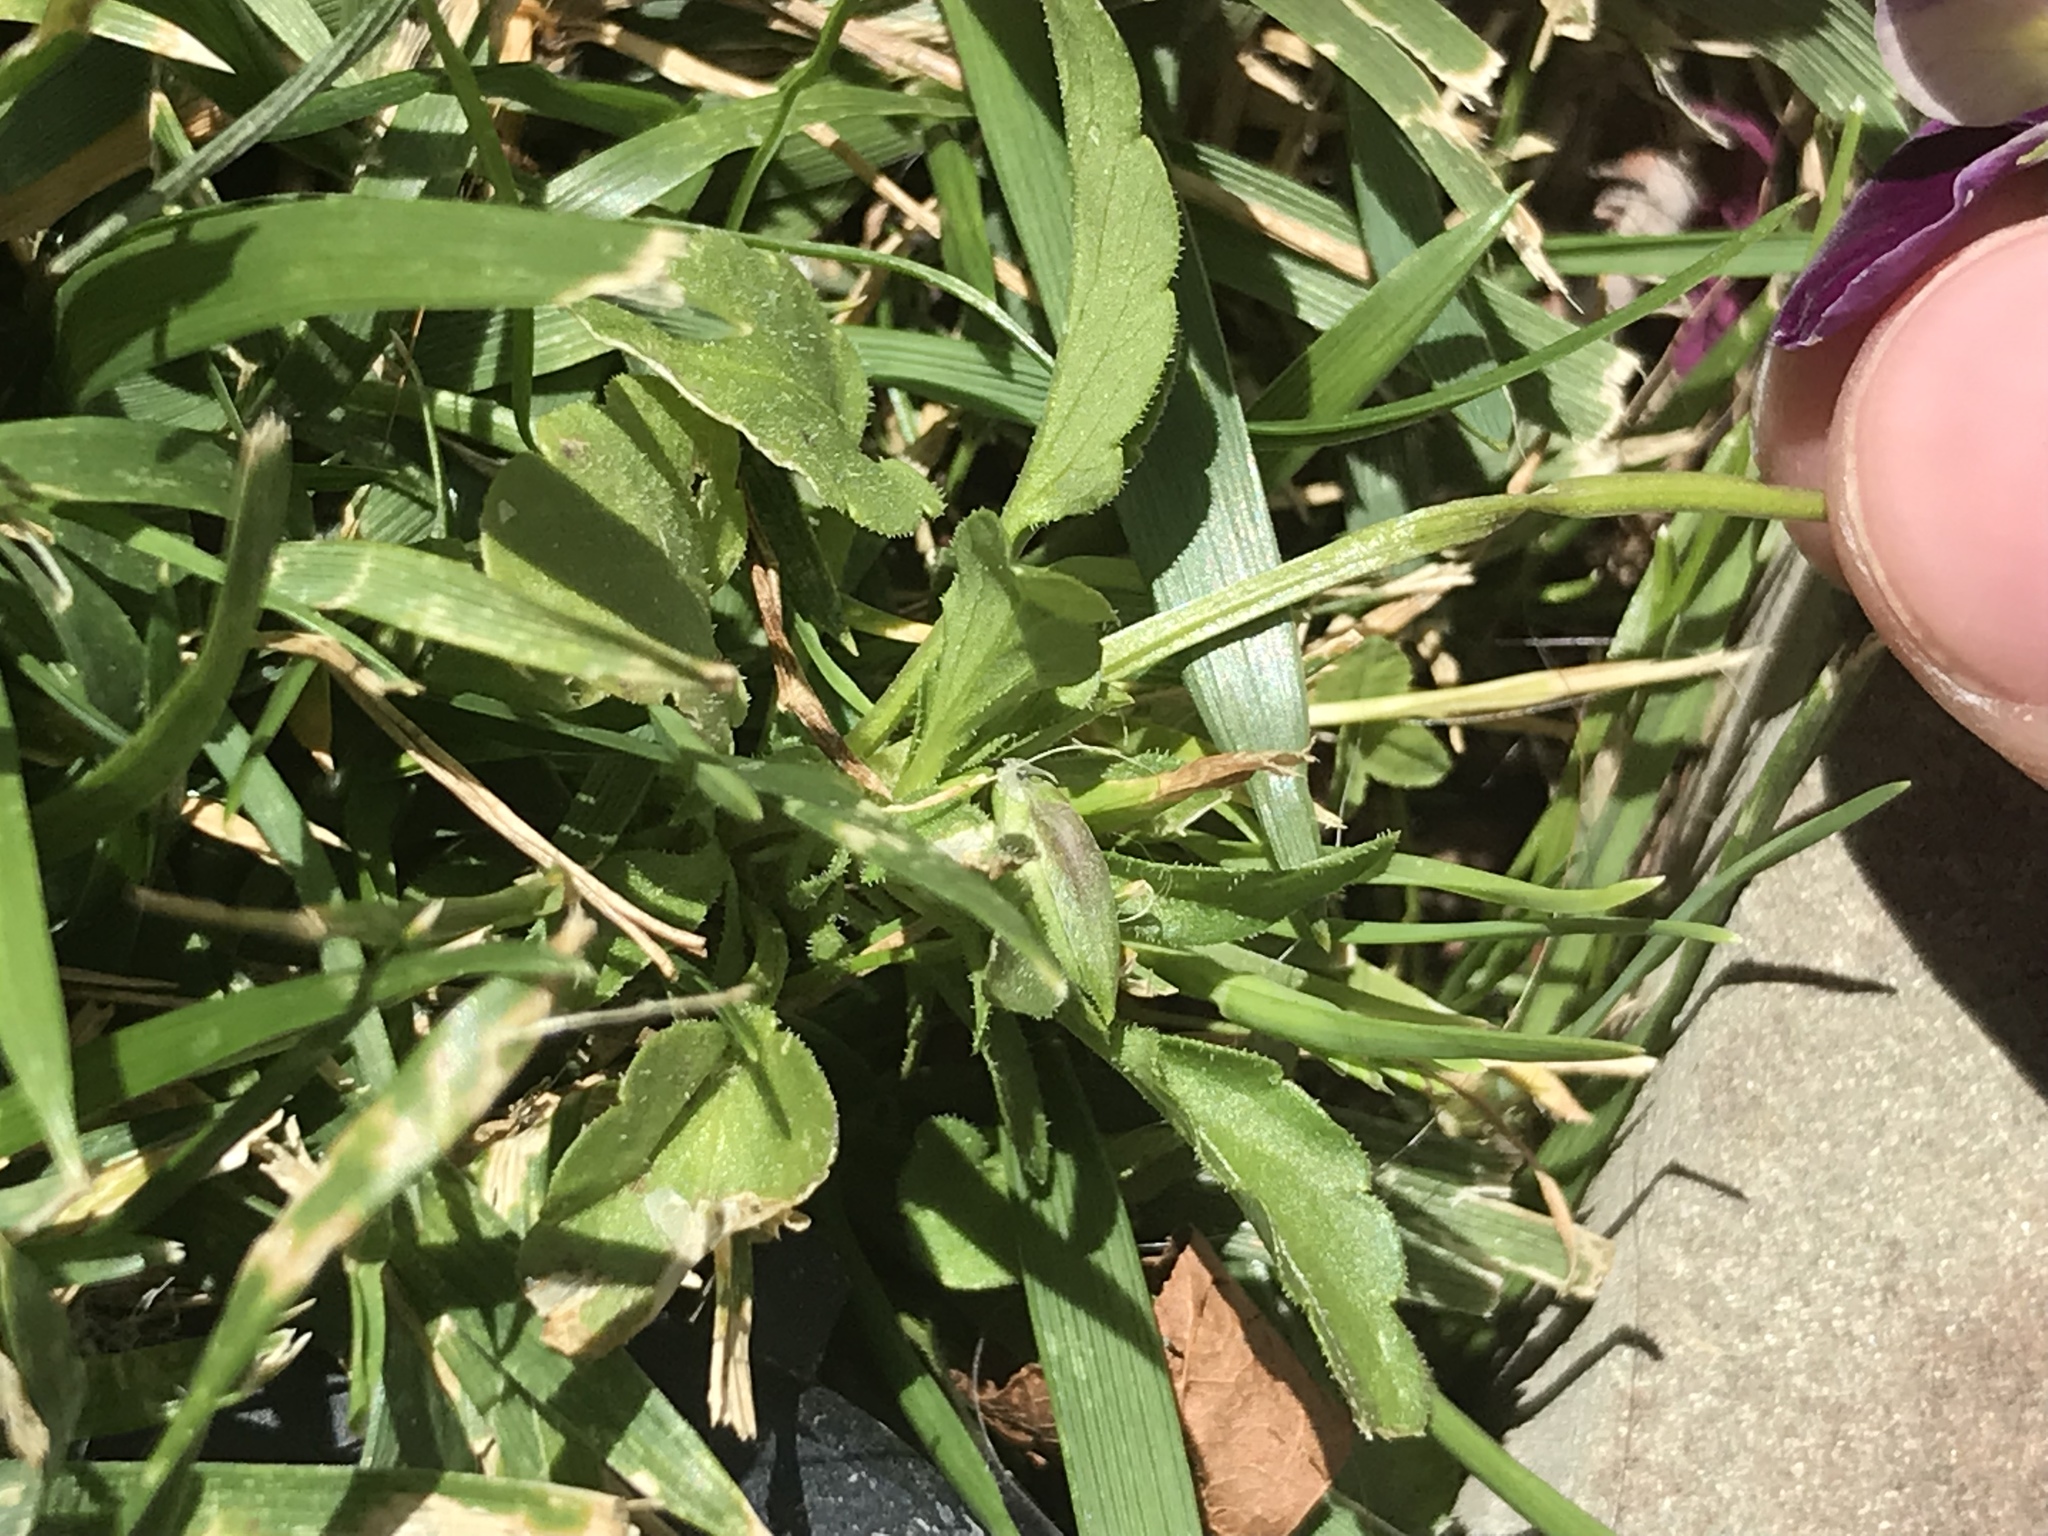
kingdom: Plantae
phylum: Tracheophyta
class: Magnoliopsida
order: Malpighiales
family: Violaceae
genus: Viola
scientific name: Viola williamsii
